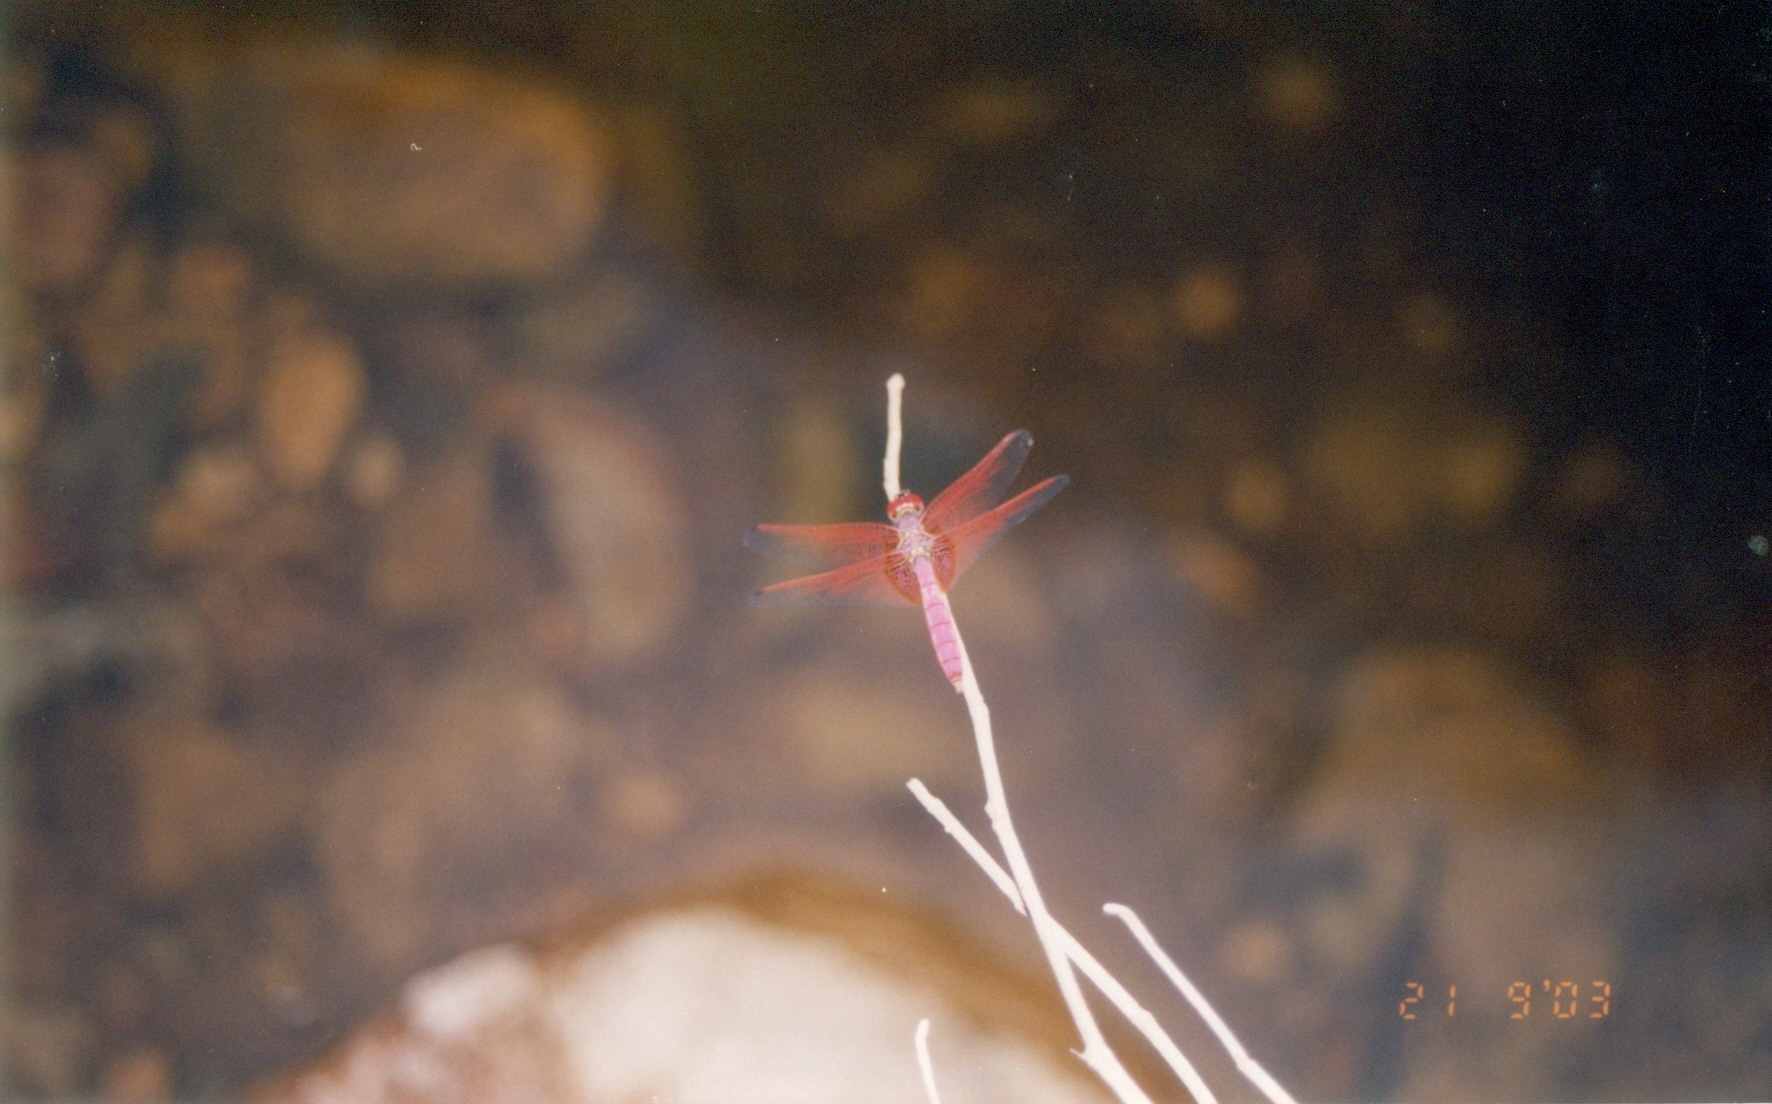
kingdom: Animalia
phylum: Arthropoda
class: Insecta
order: Odonata
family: Libellulidae
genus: Trithemis
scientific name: Trithemis aurora
